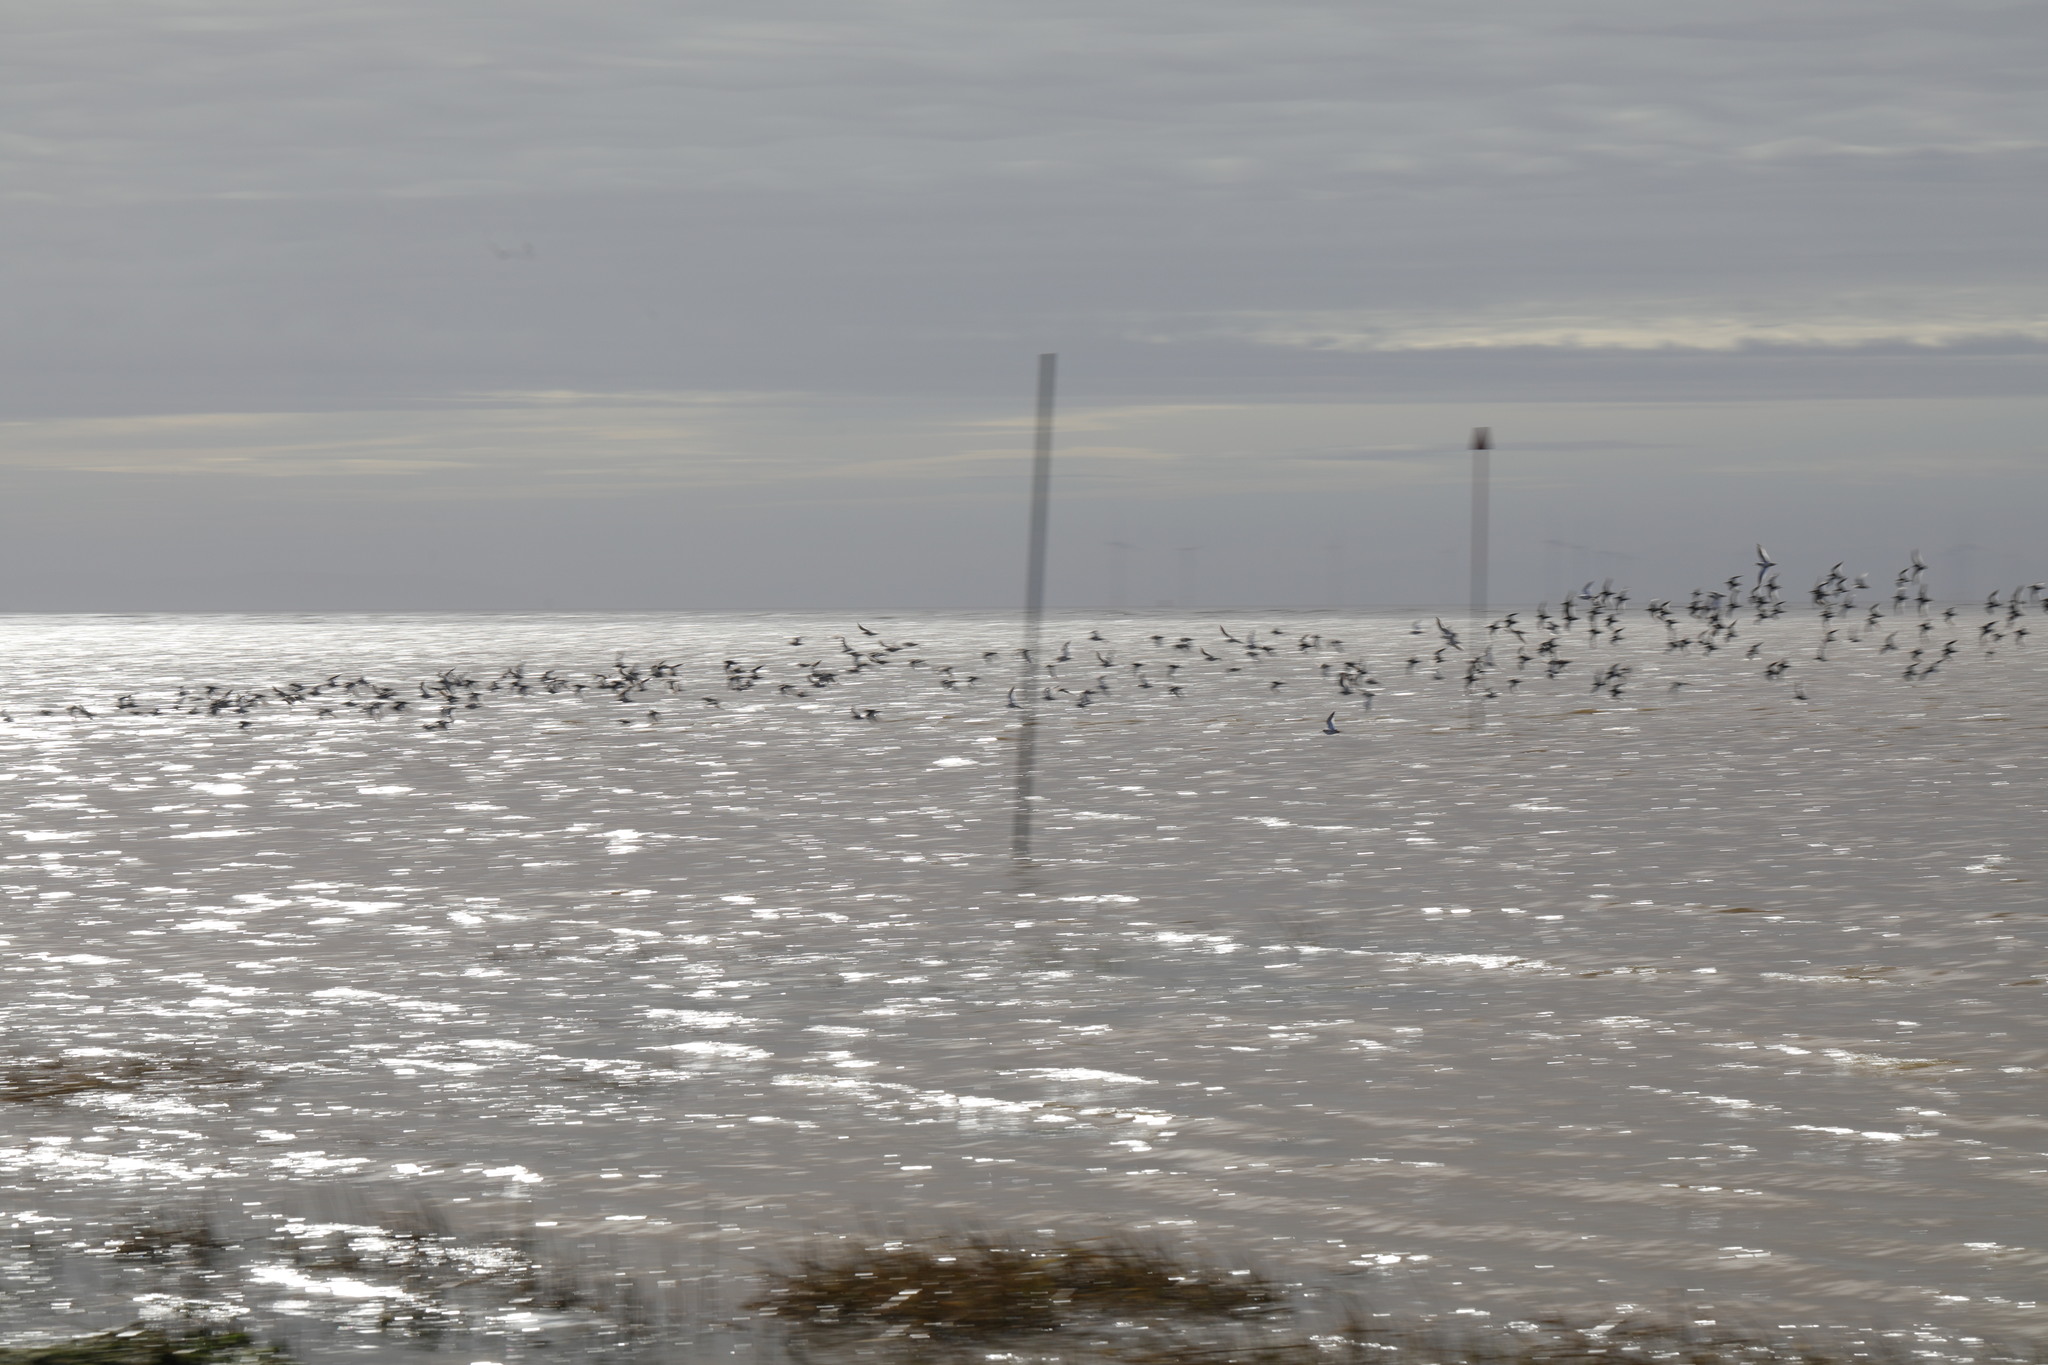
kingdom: Animalia
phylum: Chordata
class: Aves
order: Charadriiformes
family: Scolopacidae
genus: Tringa
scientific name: Tringa totanus
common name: Common redshank
